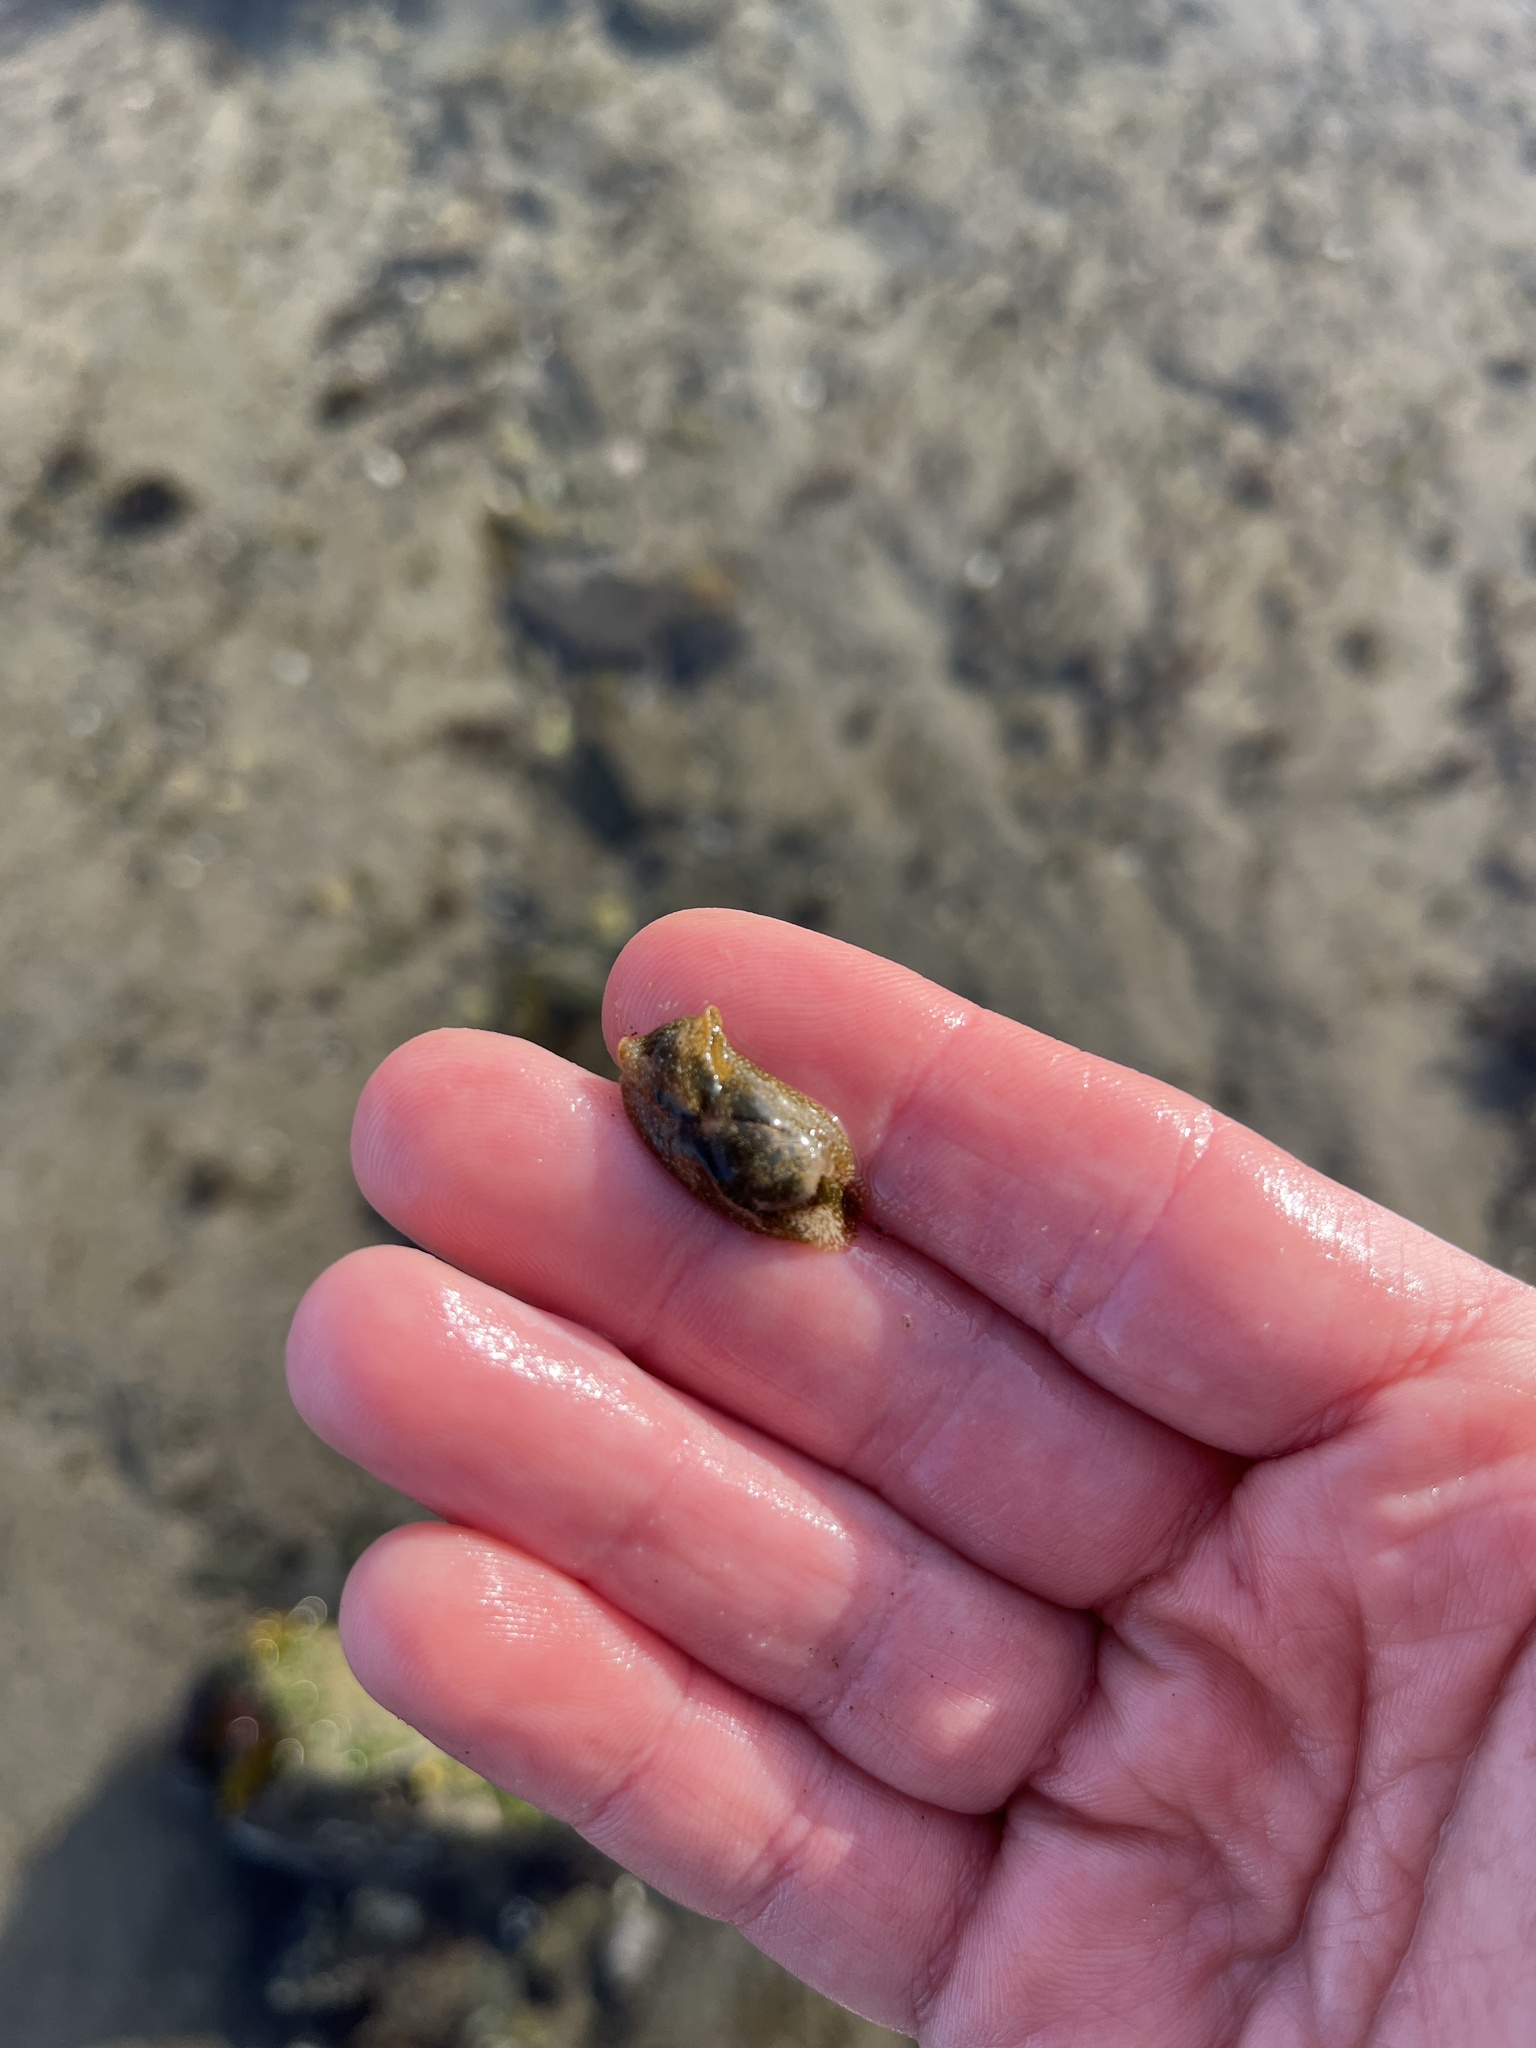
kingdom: Animalia
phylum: Mollusca
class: Gastropoda
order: Cephalaspidea
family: Haminoeidae
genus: Haminoea
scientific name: Haminoea virescens
